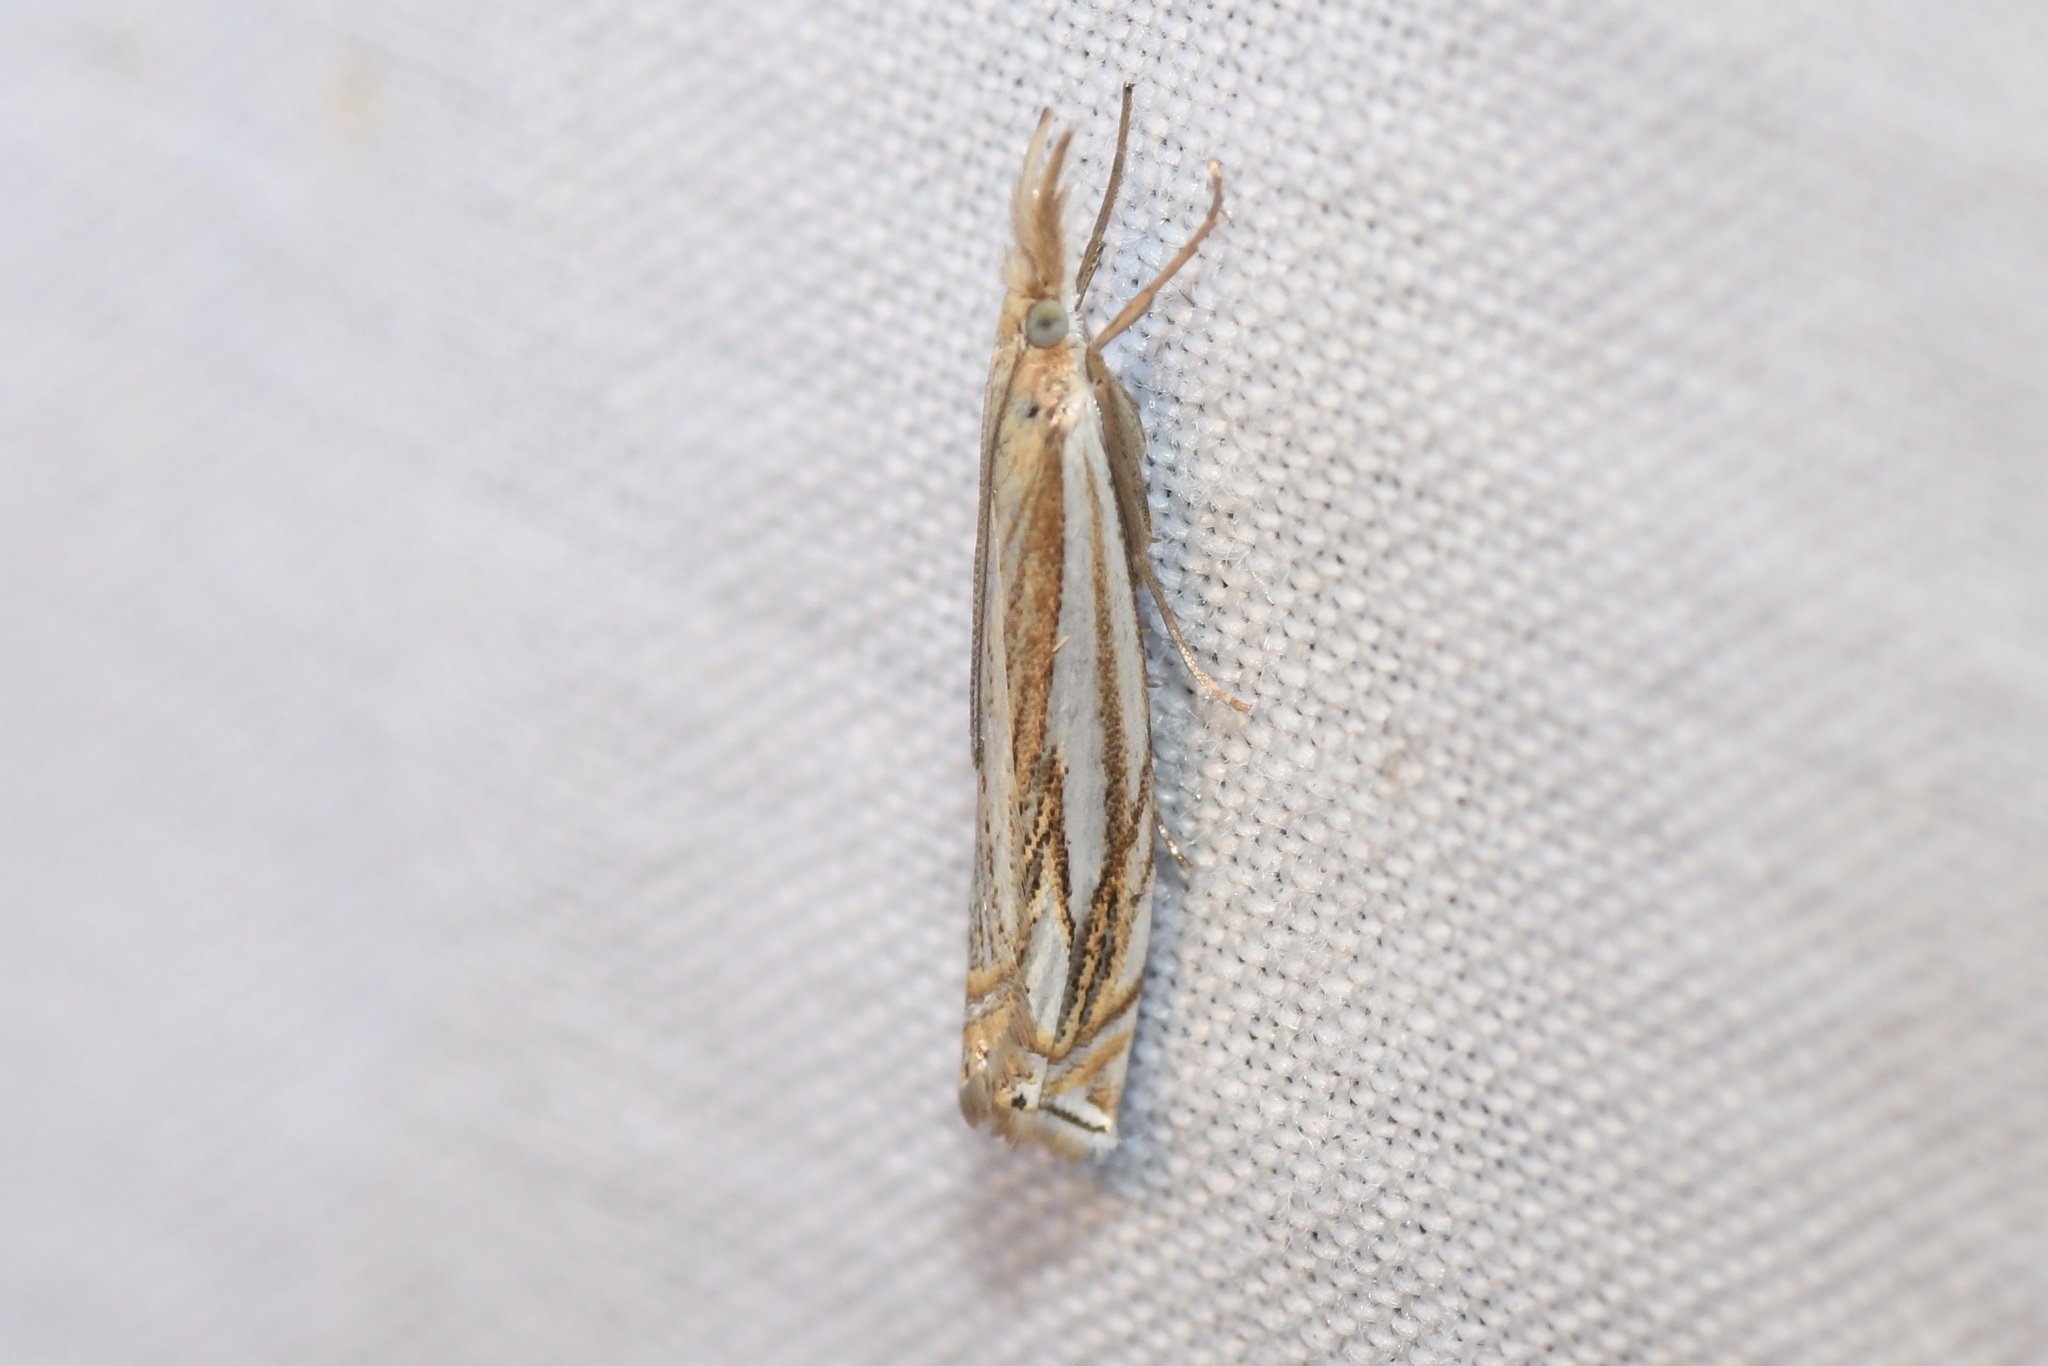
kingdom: Animalia
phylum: Arthropoda
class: Insecta
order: Lepidoptera
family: Crambidae
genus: Crambus
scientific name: Crambus saltuellus
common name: Pasture grass-veneer
